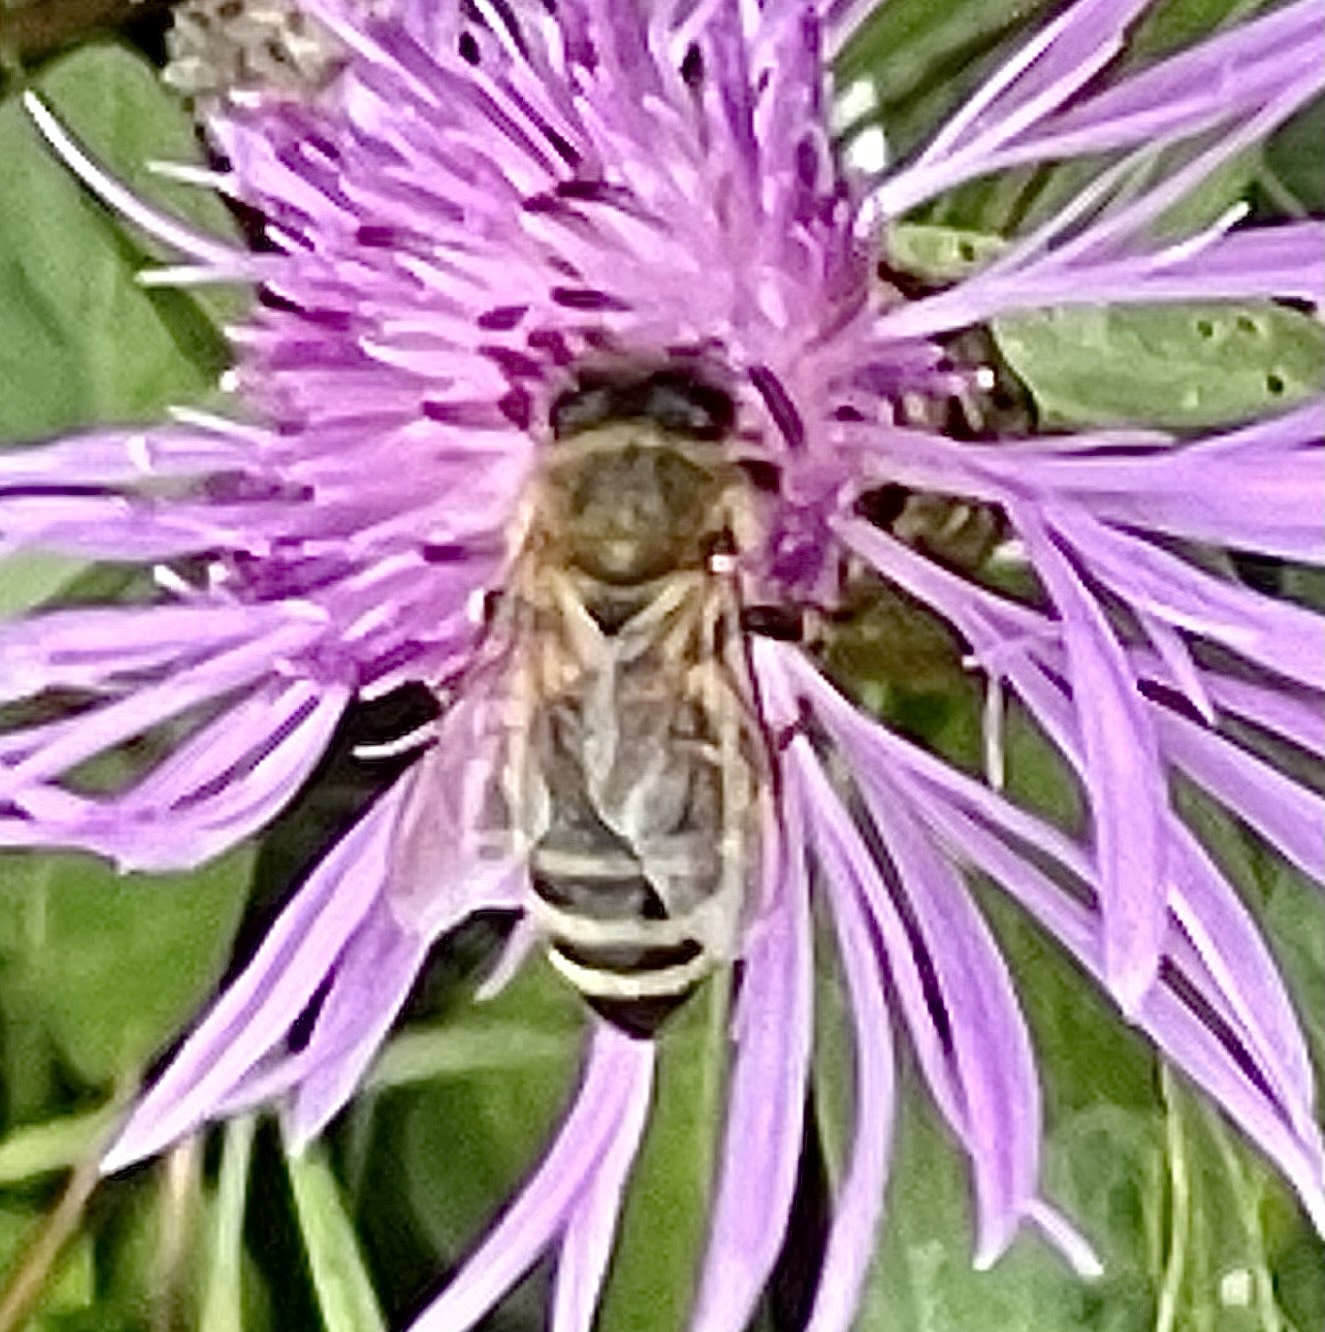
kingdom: Animalia
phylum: Arthropoda
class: Insecta
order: Hymenoptera
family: Apidae
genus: Apis
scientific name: Apis mellifera
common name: Honey bee
